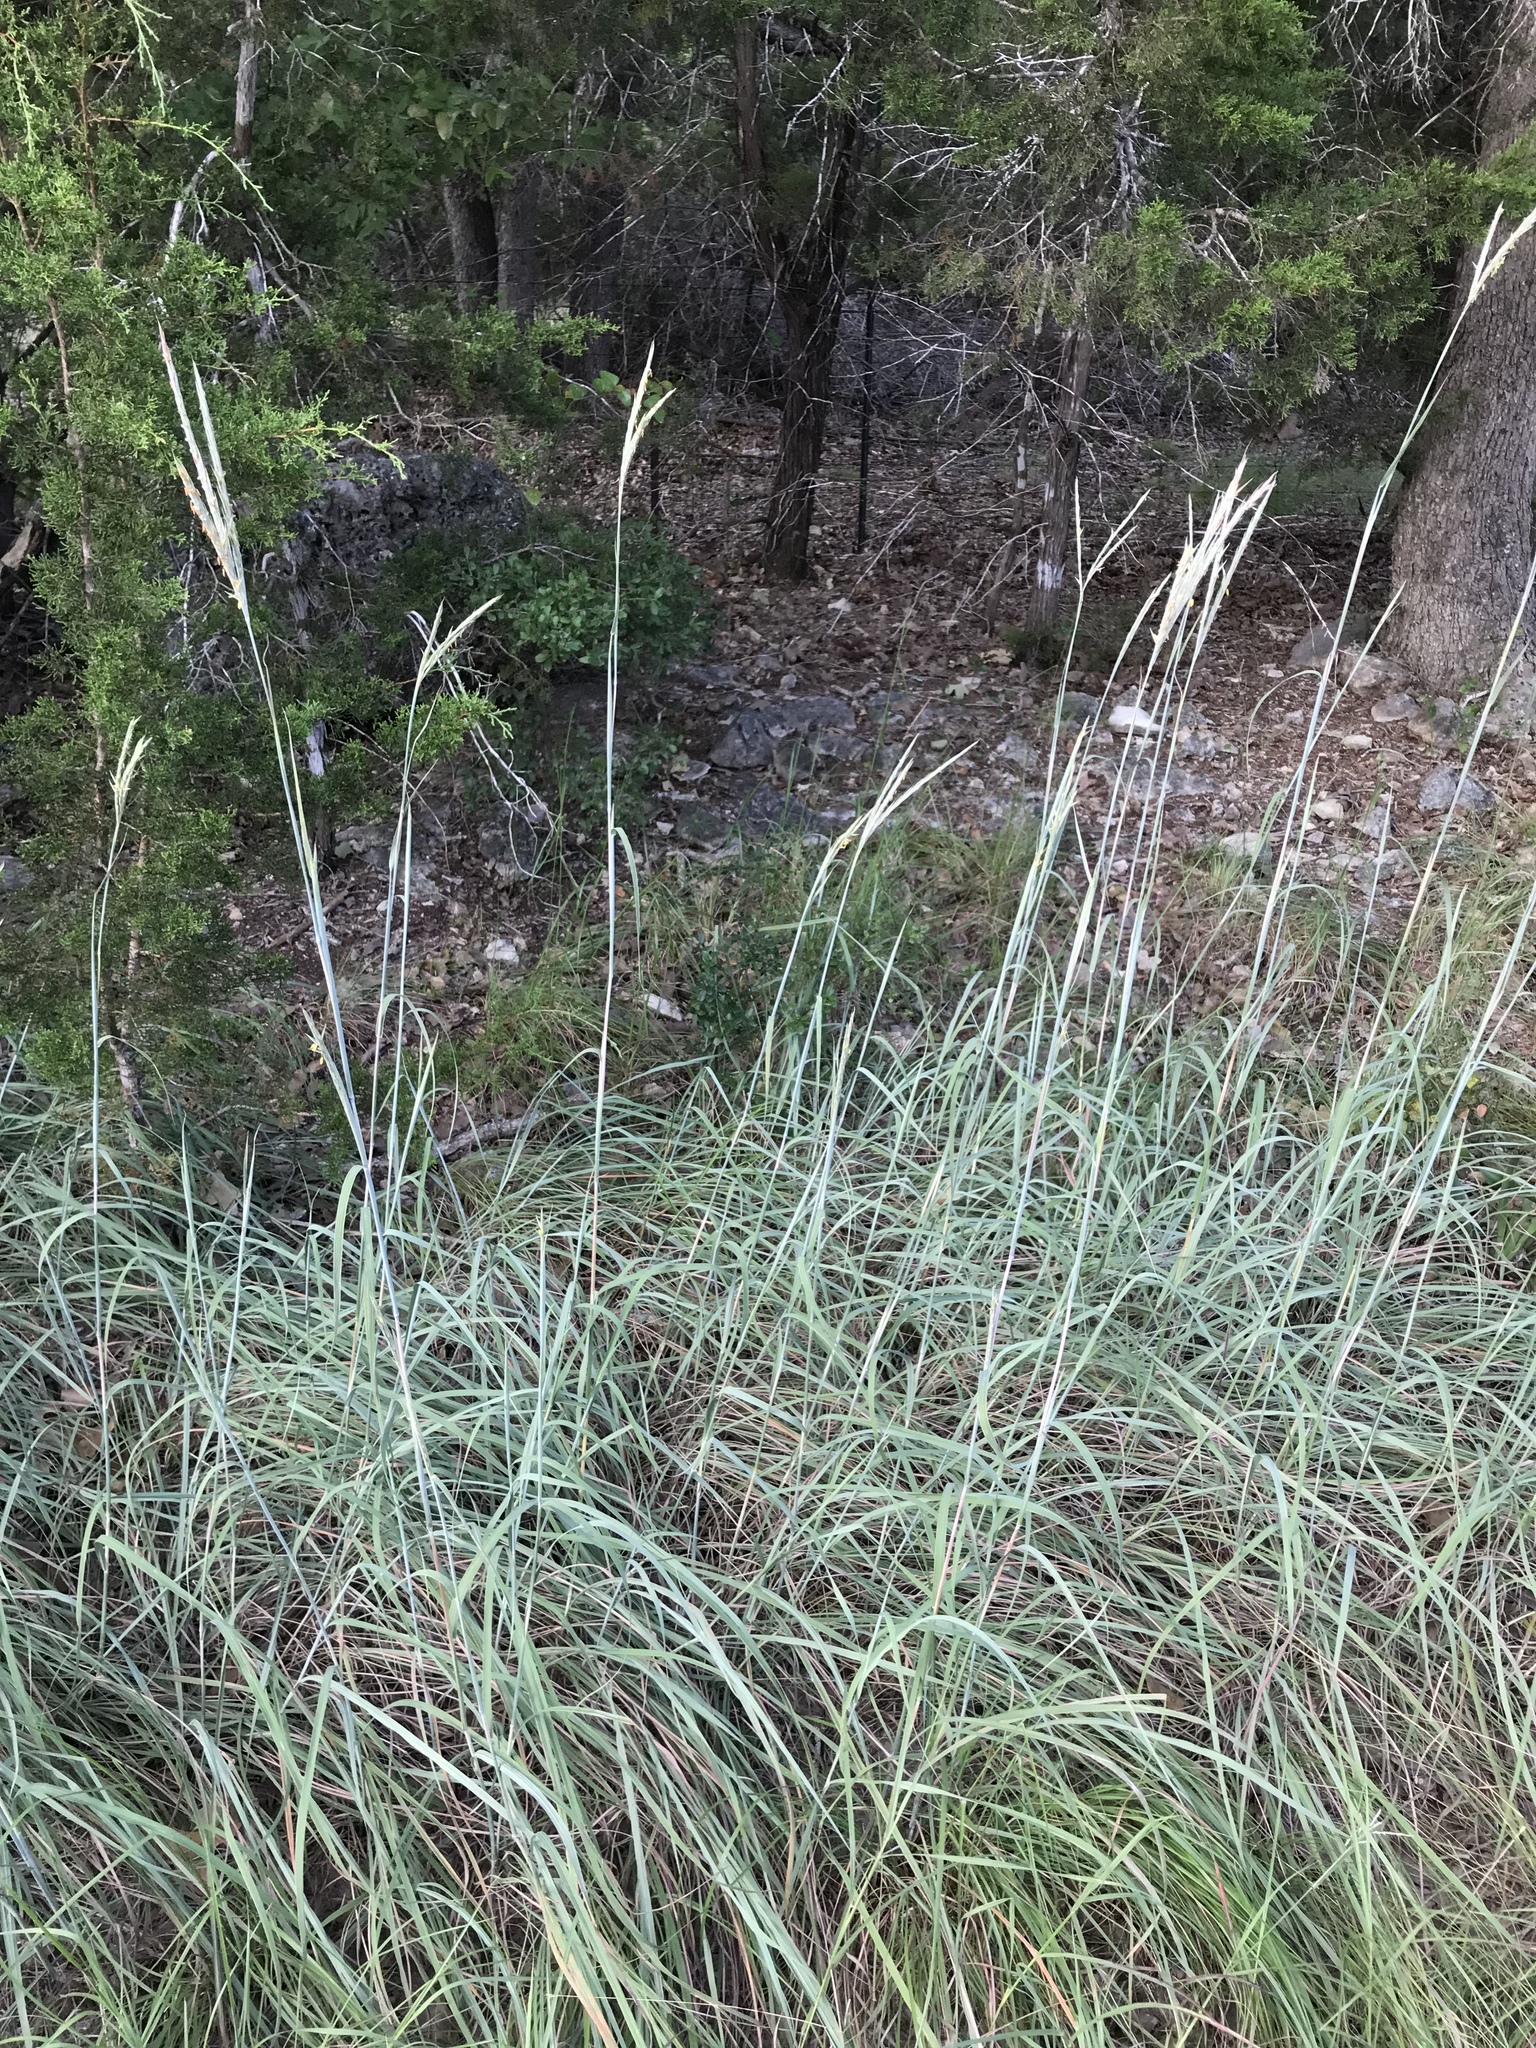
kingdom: Plantae
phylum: Tracheophyta
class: Liliopsida
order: Poales
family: Poaceae
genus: Andropogon
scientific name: Andropogon gerardi
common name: Big bluestem
